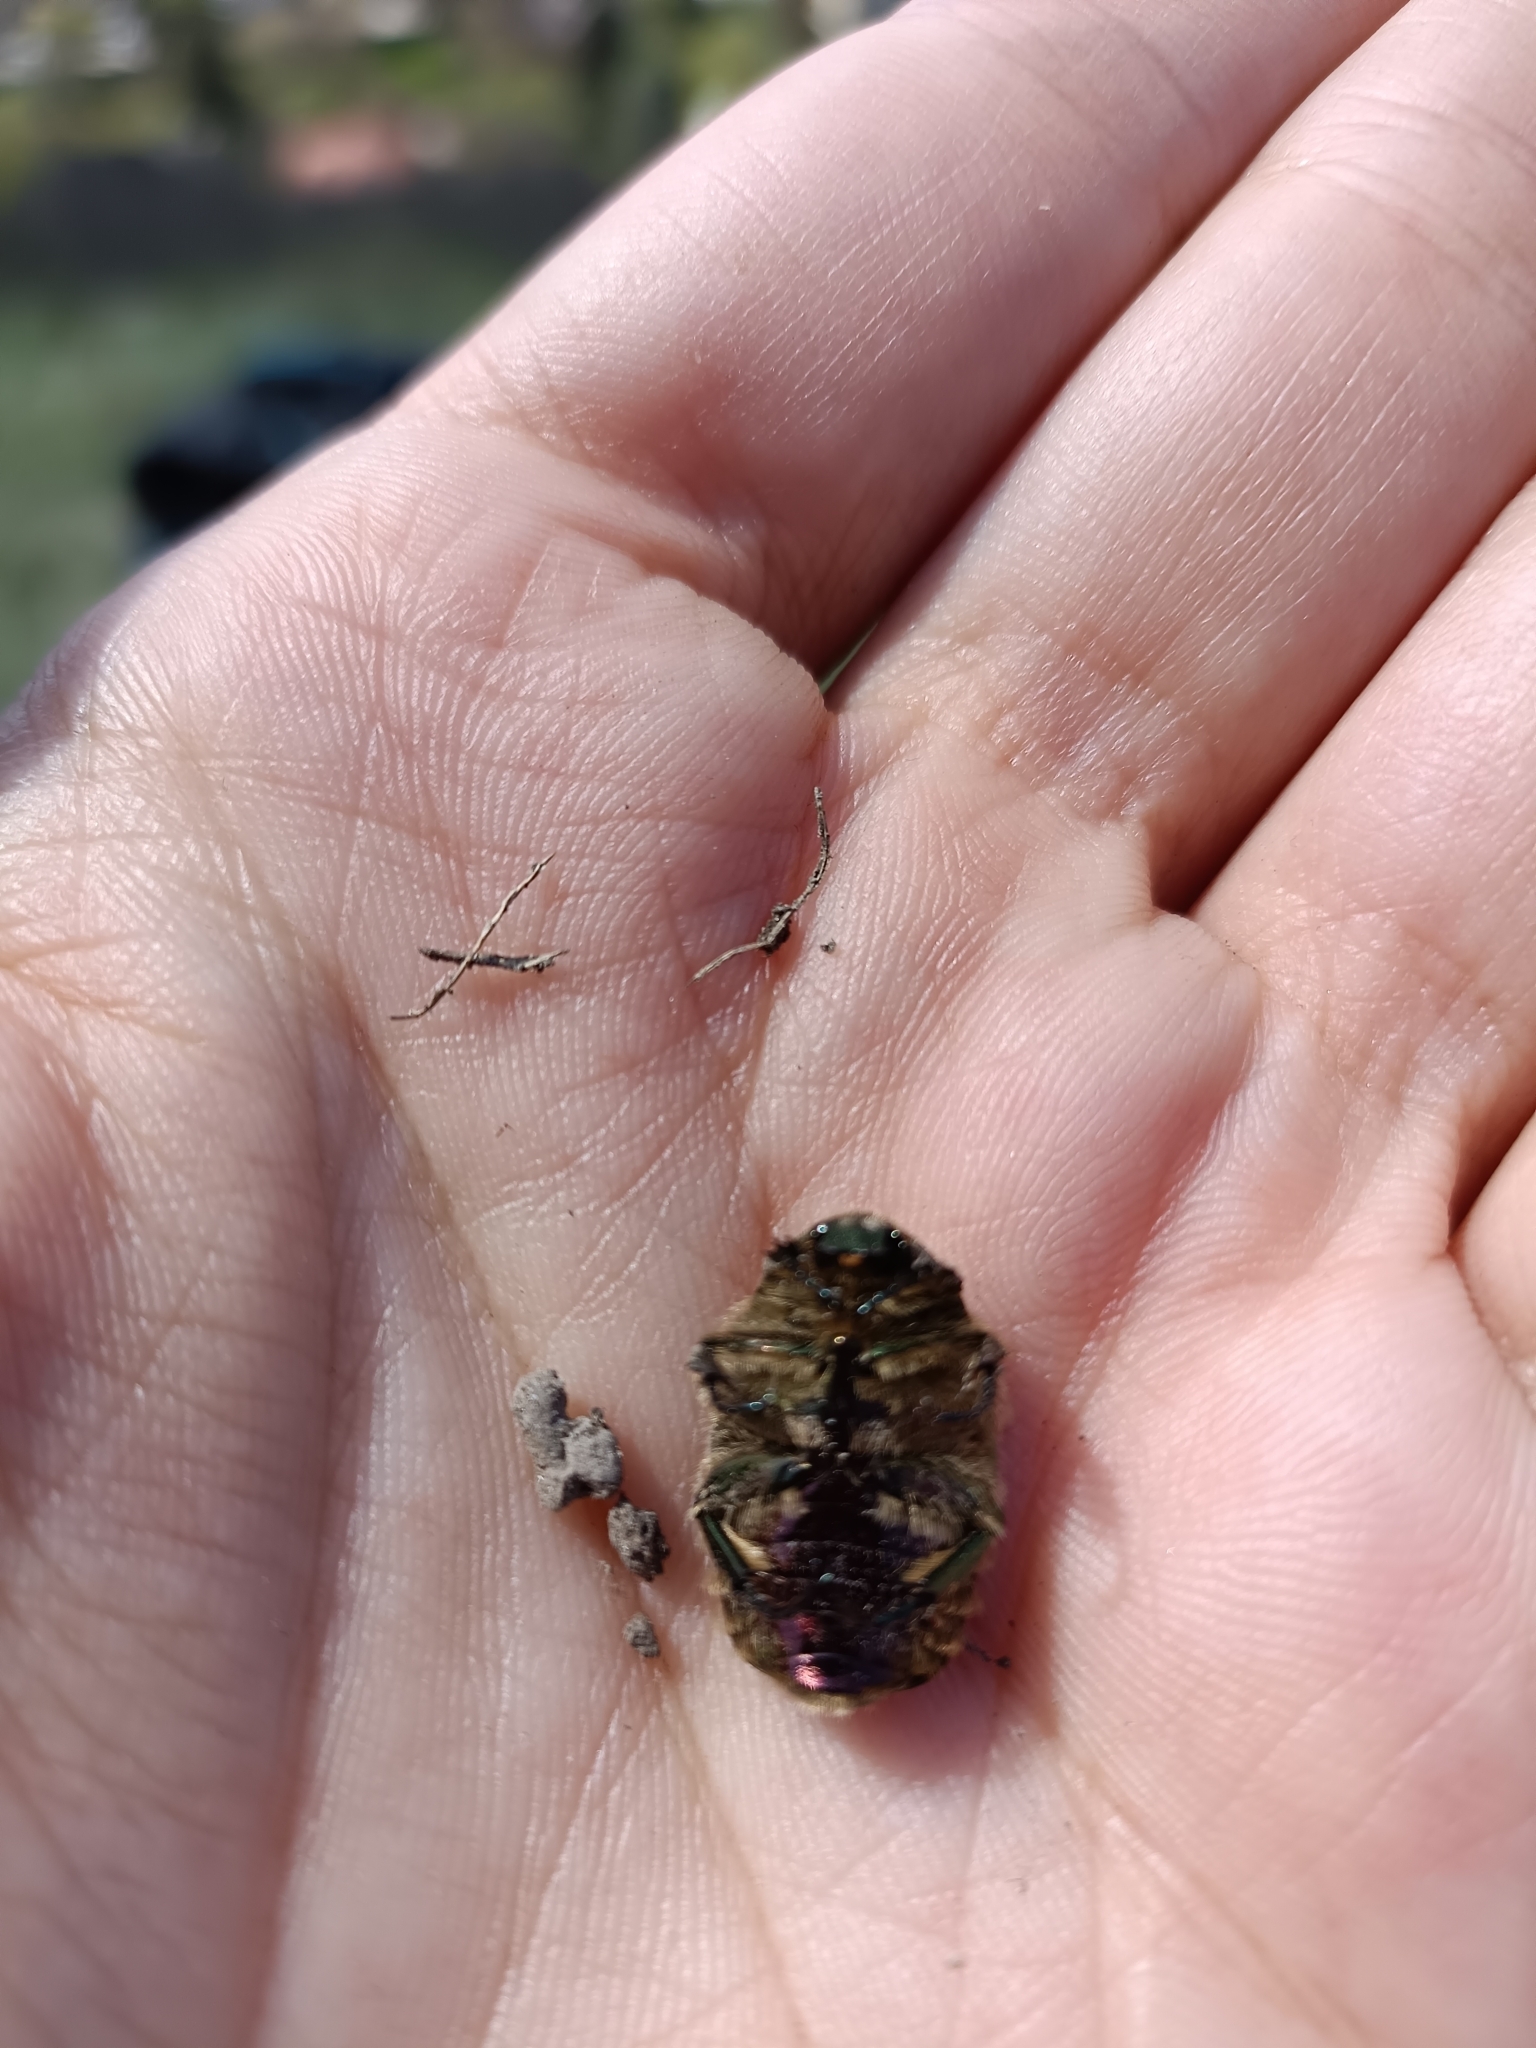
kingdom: Animalia
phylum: Arthropoda
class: Insecta
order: Coleoptera
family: Scarabaeidae
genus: Cetonia
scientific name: Cetonia aurata
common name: Rose chafer
